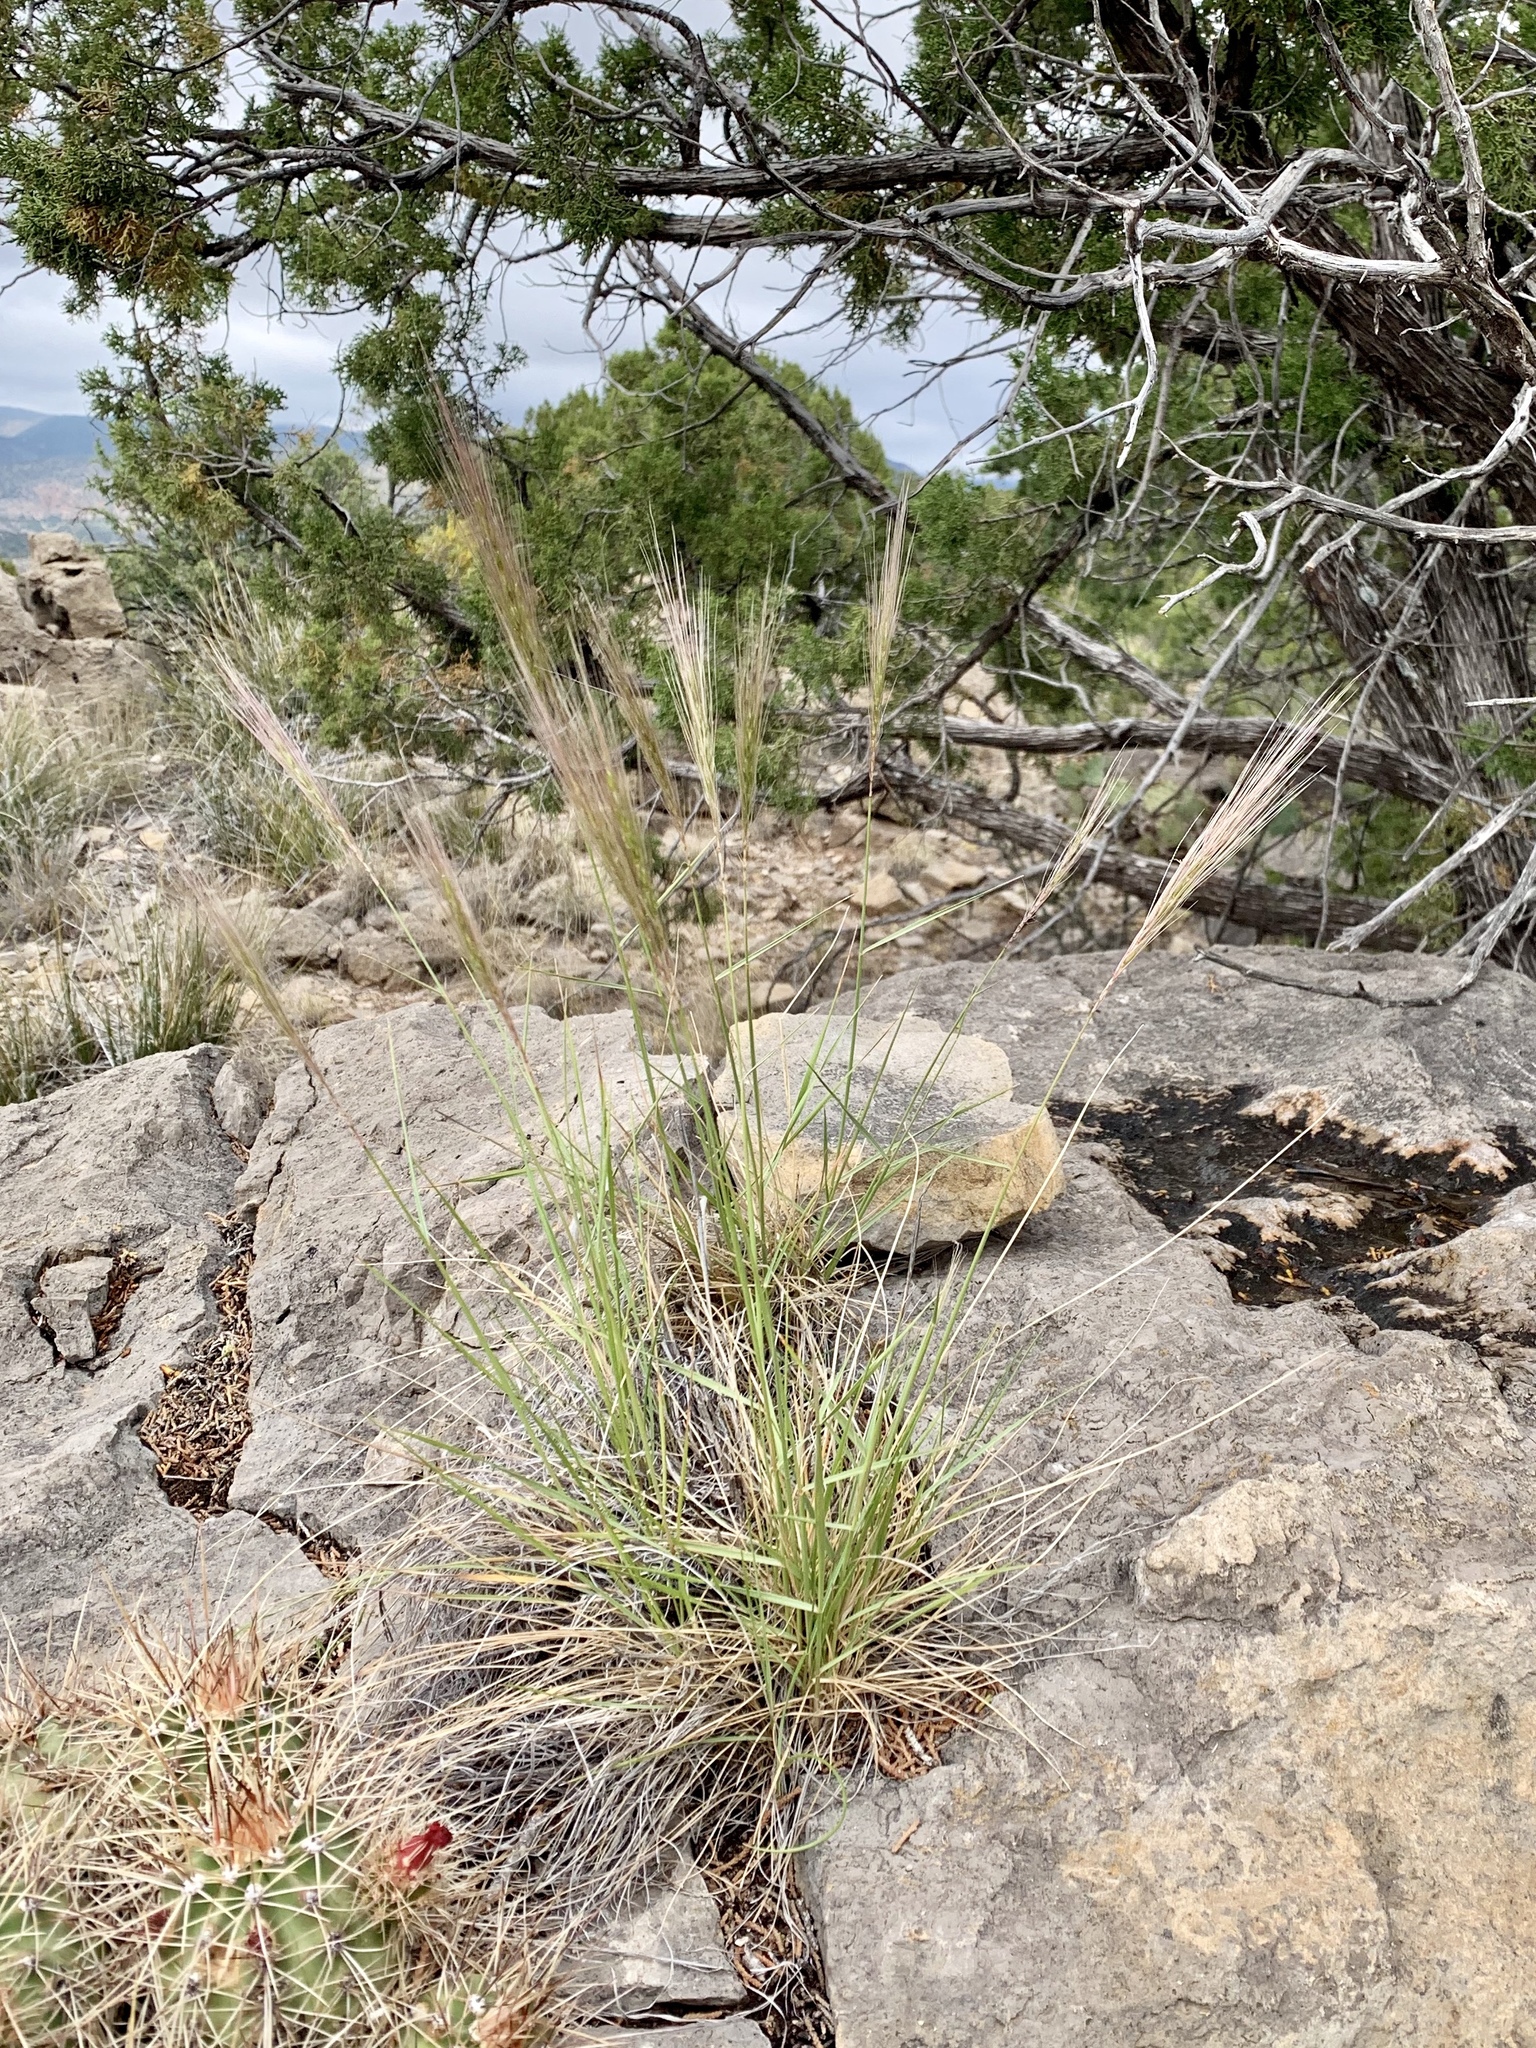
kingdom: Plantae
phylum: Tracheophyta
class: Liliopsida
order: Poales
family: Poaceae
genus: Elymus
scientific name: Elymus elymoides
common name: Bottlebrush squirreltail
